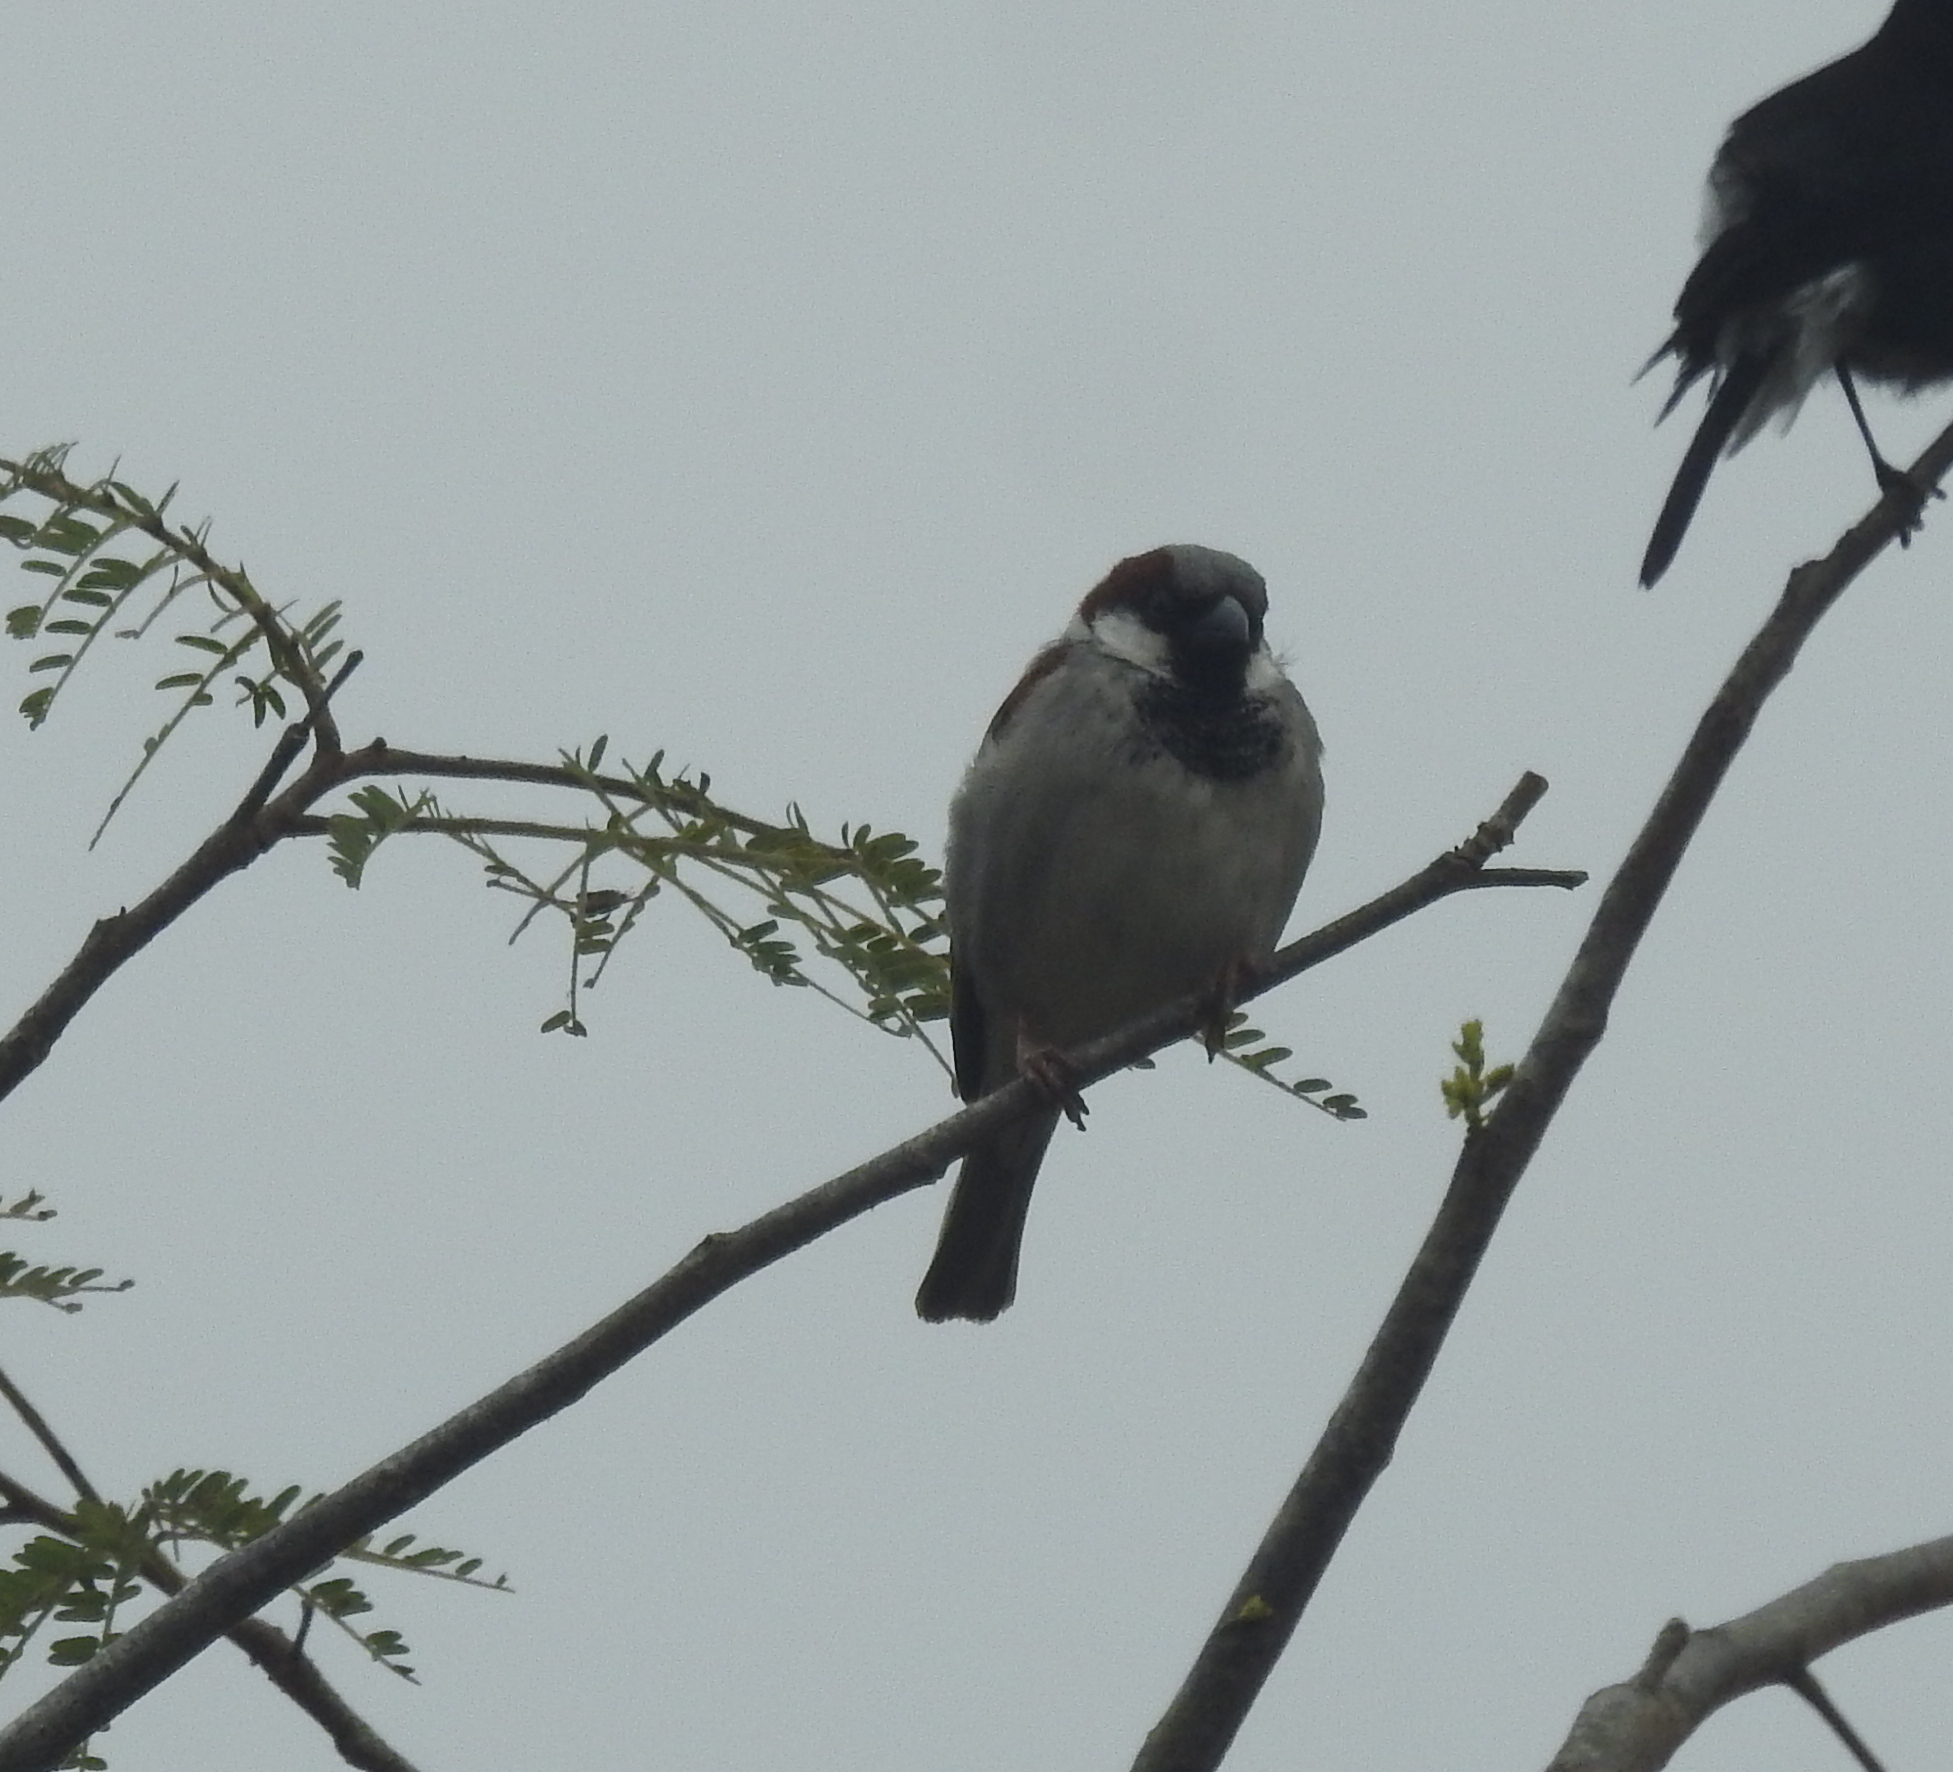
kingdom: Animalia
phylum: Chordata
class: Aves
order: Passeriformes
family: Passeridae
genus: Passer
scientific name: Passer domesticus
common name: House sparrow
